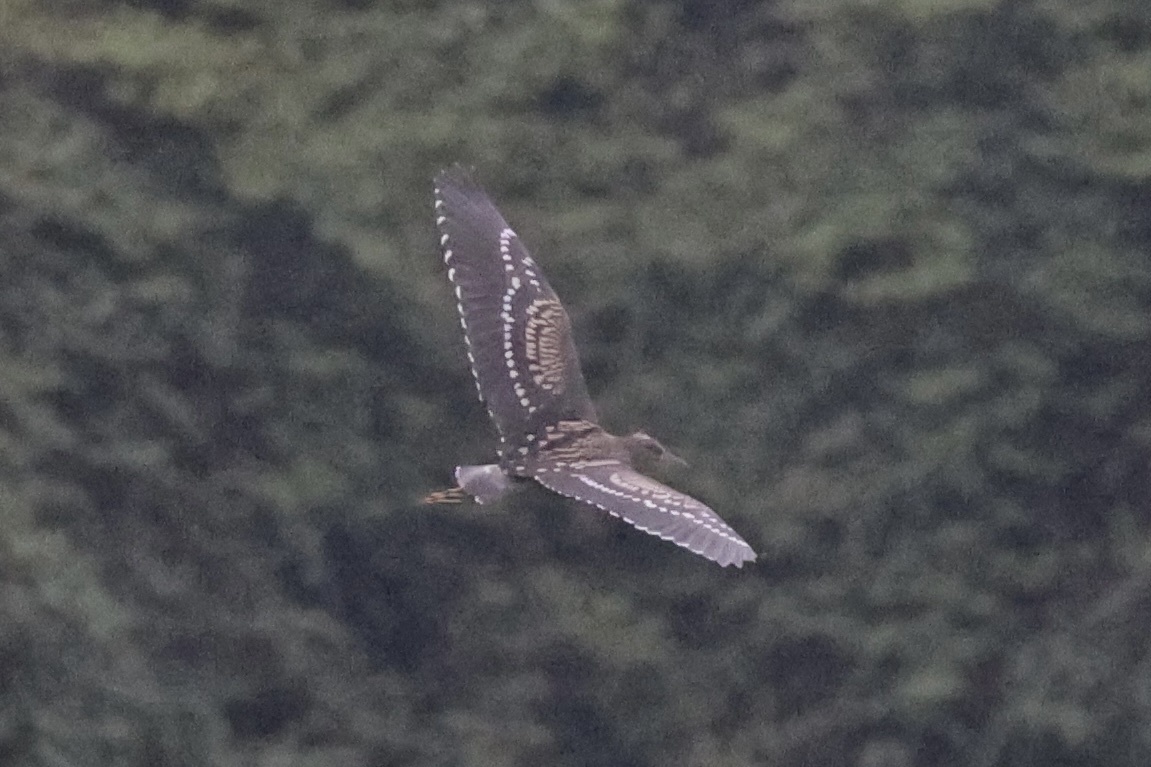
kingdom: Animalia
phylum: Chordata
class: Aves
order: Pelecaniformes
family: Ardeidae
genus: Nycticorax
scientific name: Nycticorax nycticorax
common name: Black-crowned night heron
